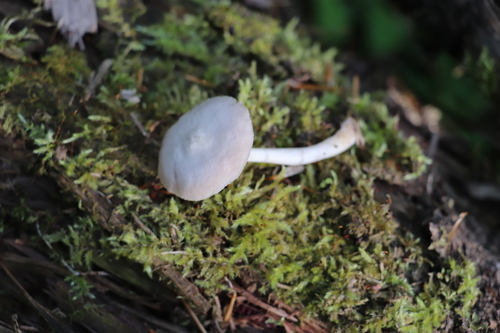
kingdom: Fungi
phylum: Basidiomycota
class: Agaricomycetes
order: Agaricales
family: Pluteaceae
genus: Pluteus
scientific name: Pluteus
